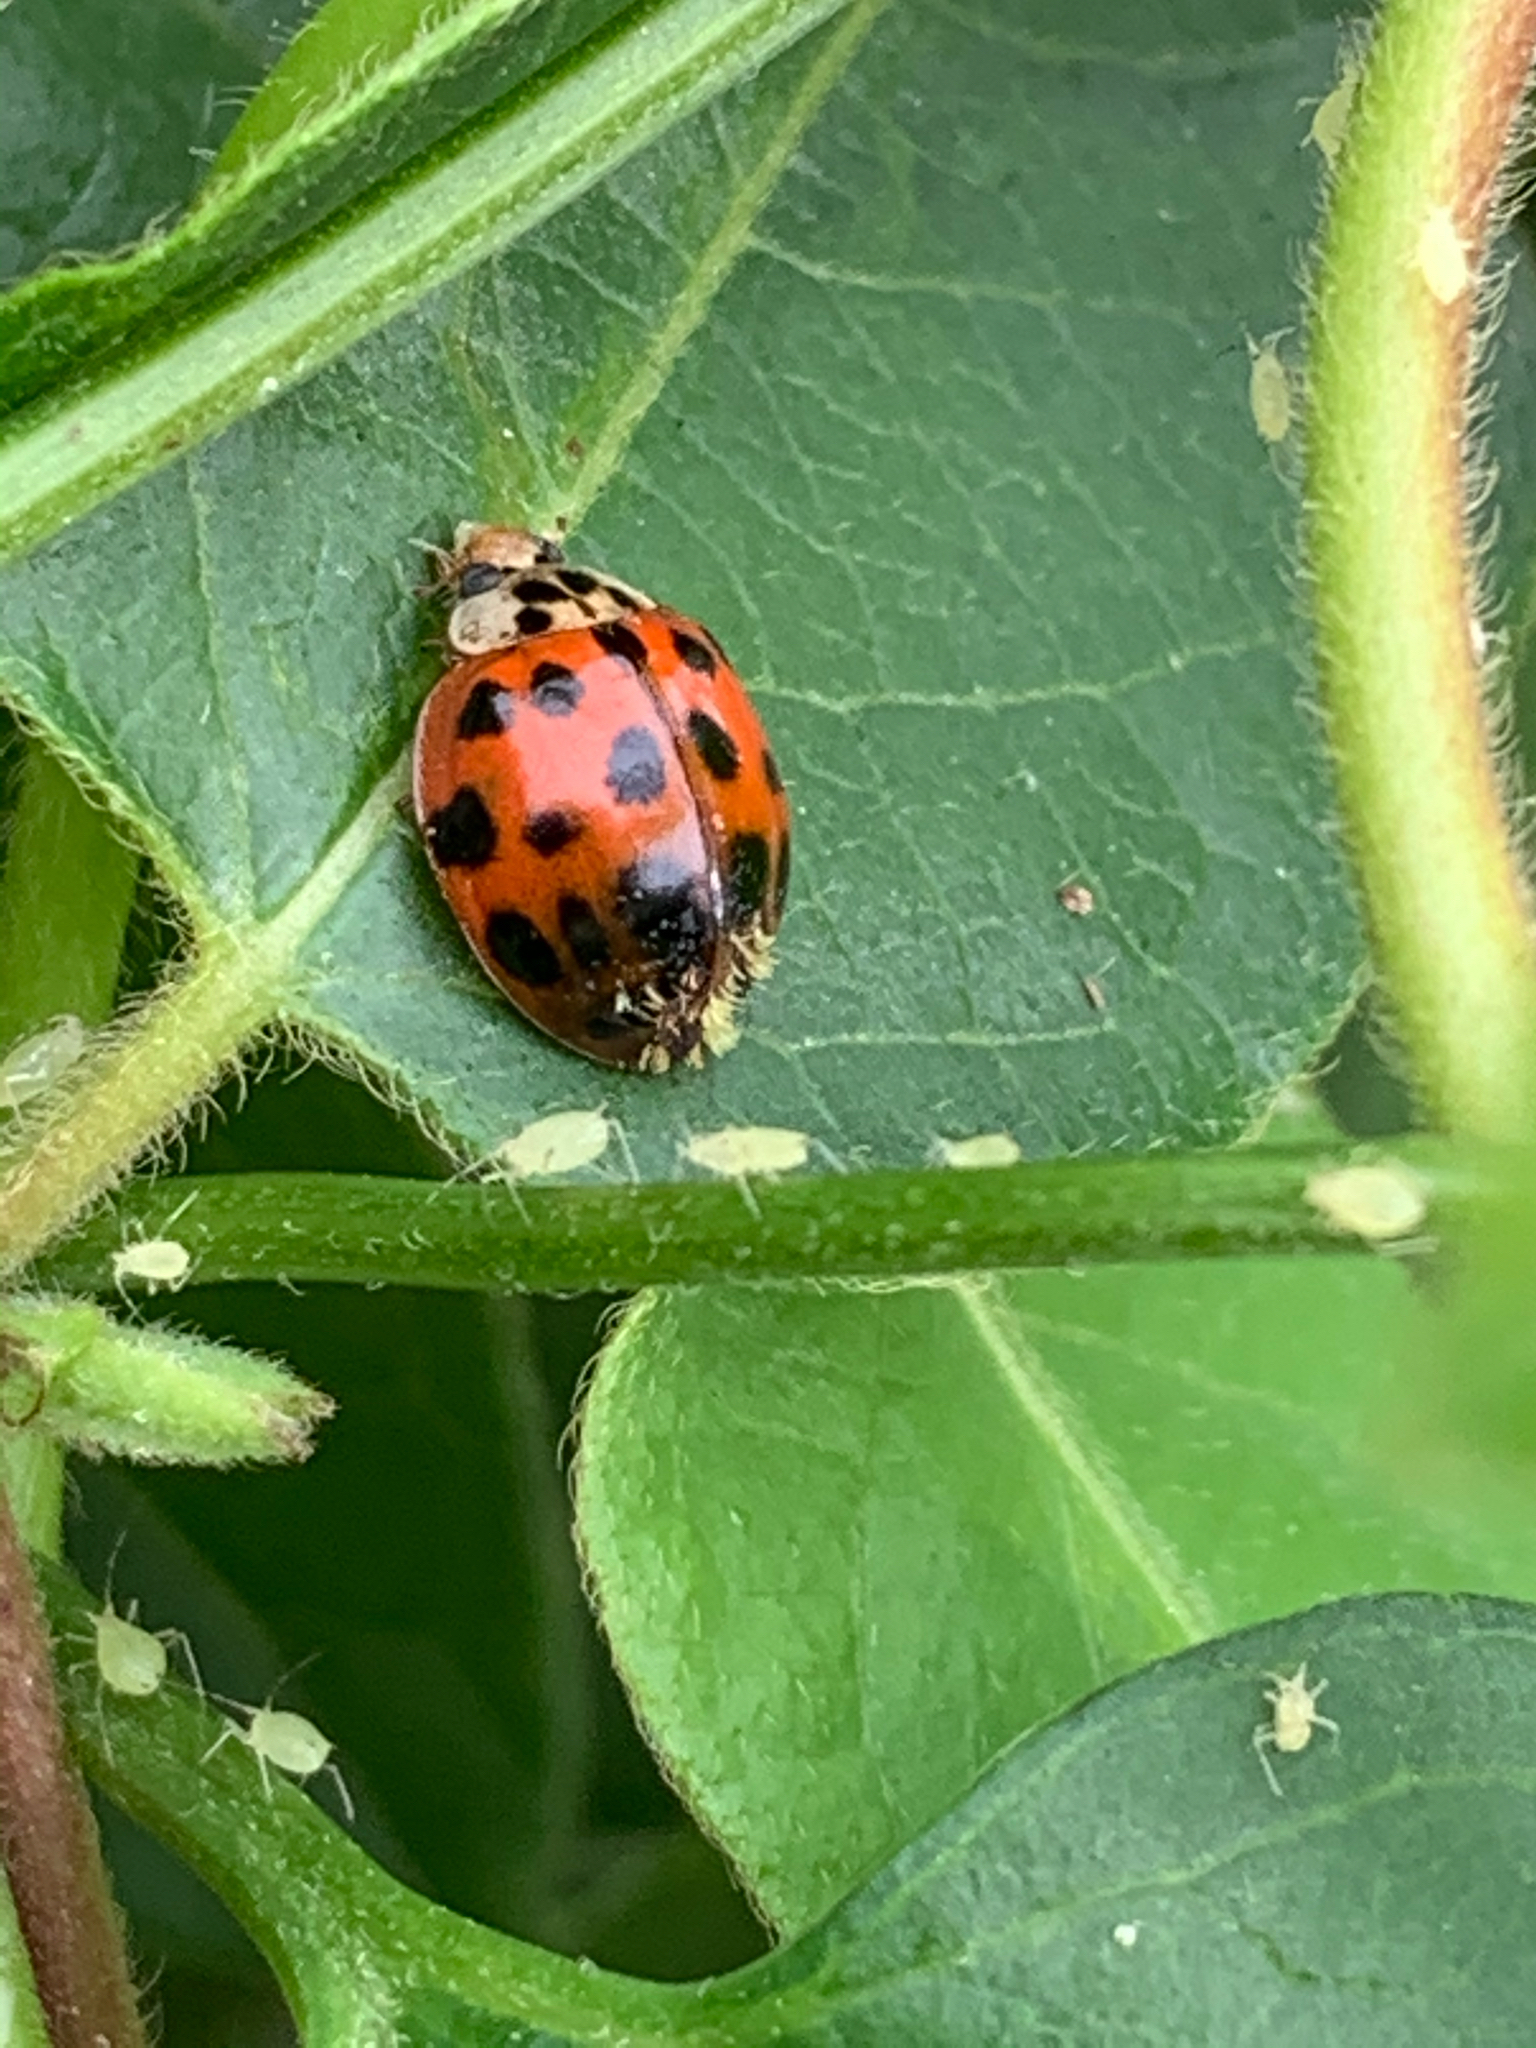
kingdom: Animalia
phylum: Arthropoda
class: Insecta
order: Coleoptera
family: Coccinellidae
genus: Harmonia
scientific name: Harmonia axyridis
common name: Harlequin ladybird
